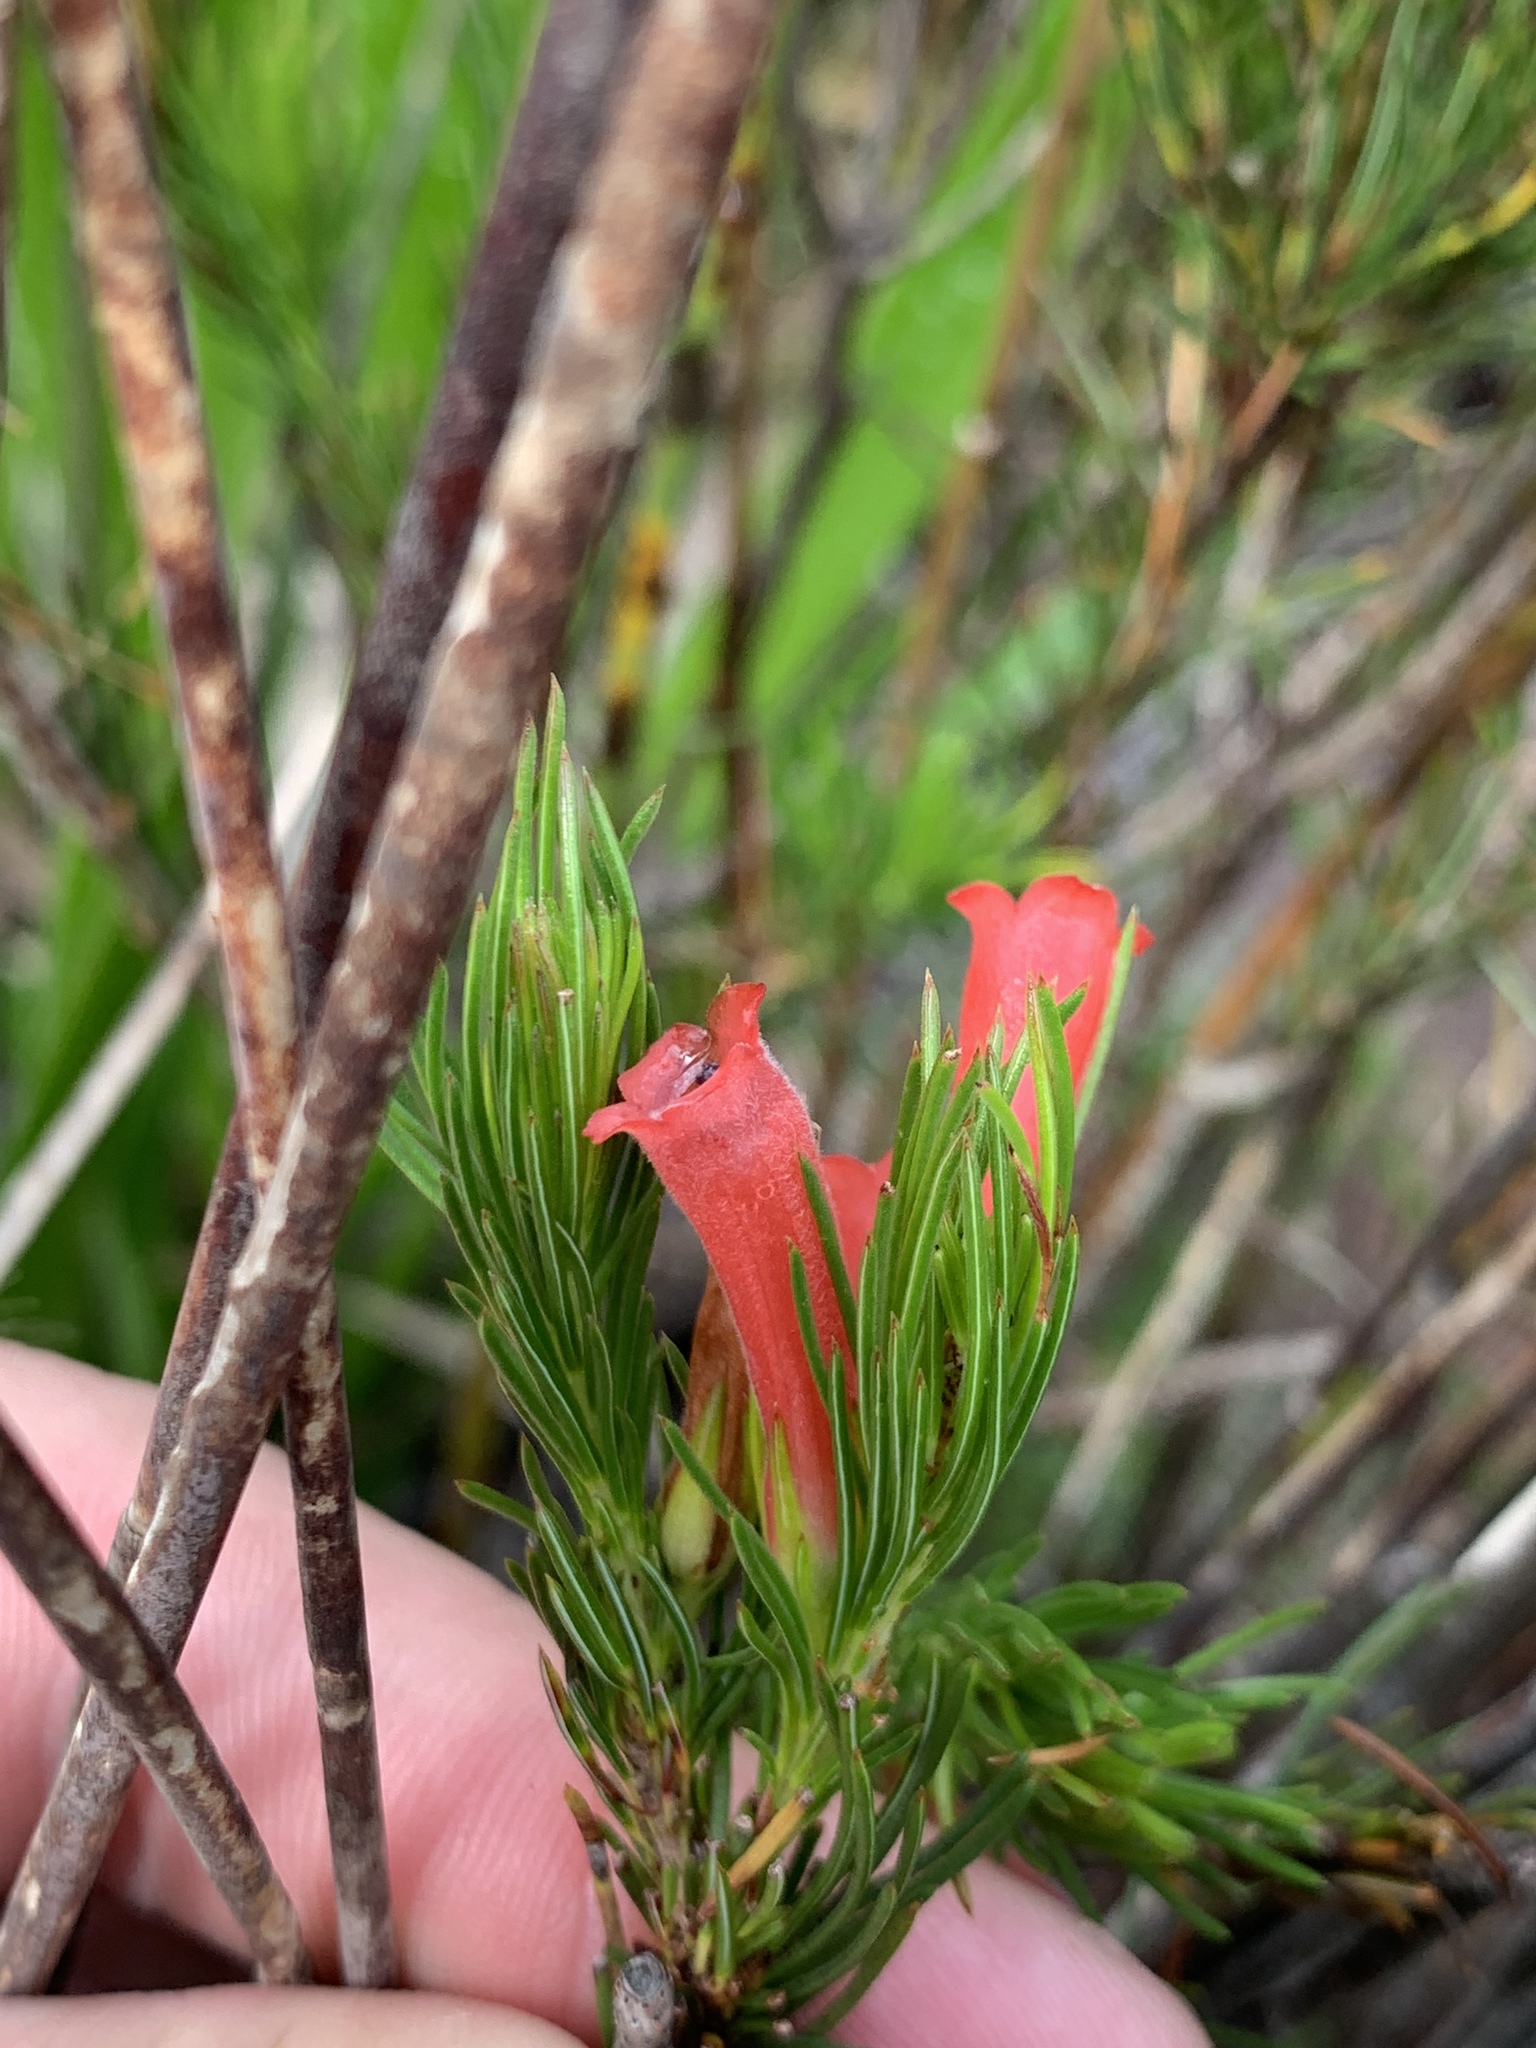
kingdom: Plantae
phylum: Tracheophyta
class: Magnoliopsida
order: Ericales
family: Ericaceae
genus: Erica
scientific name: Erica vestita
